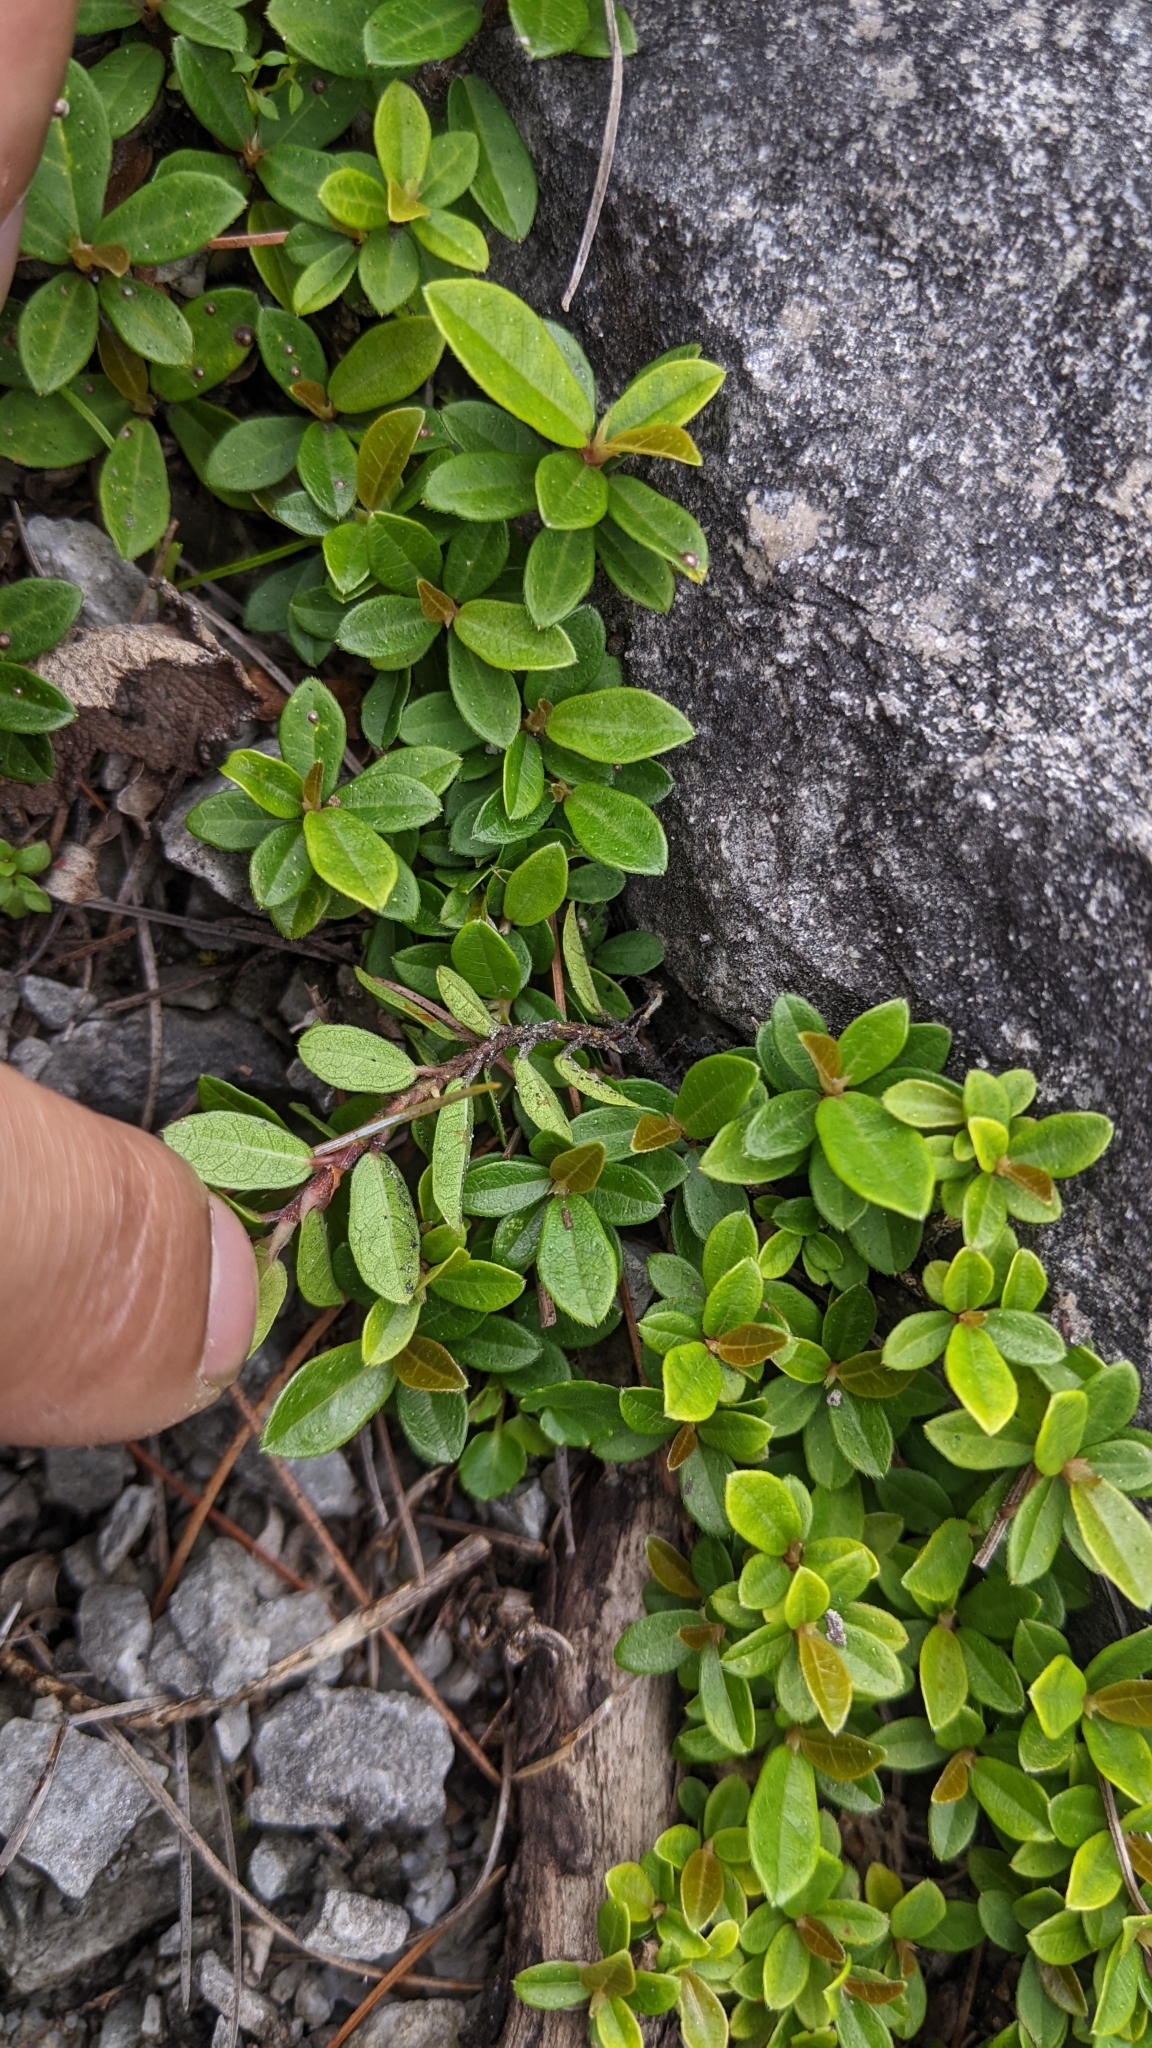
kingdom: Plantae
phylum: Tracheophyta
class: Magnoliopsida
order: Rosales
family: Moraceae
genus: Ficus
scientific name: Ficus vaccinioides
